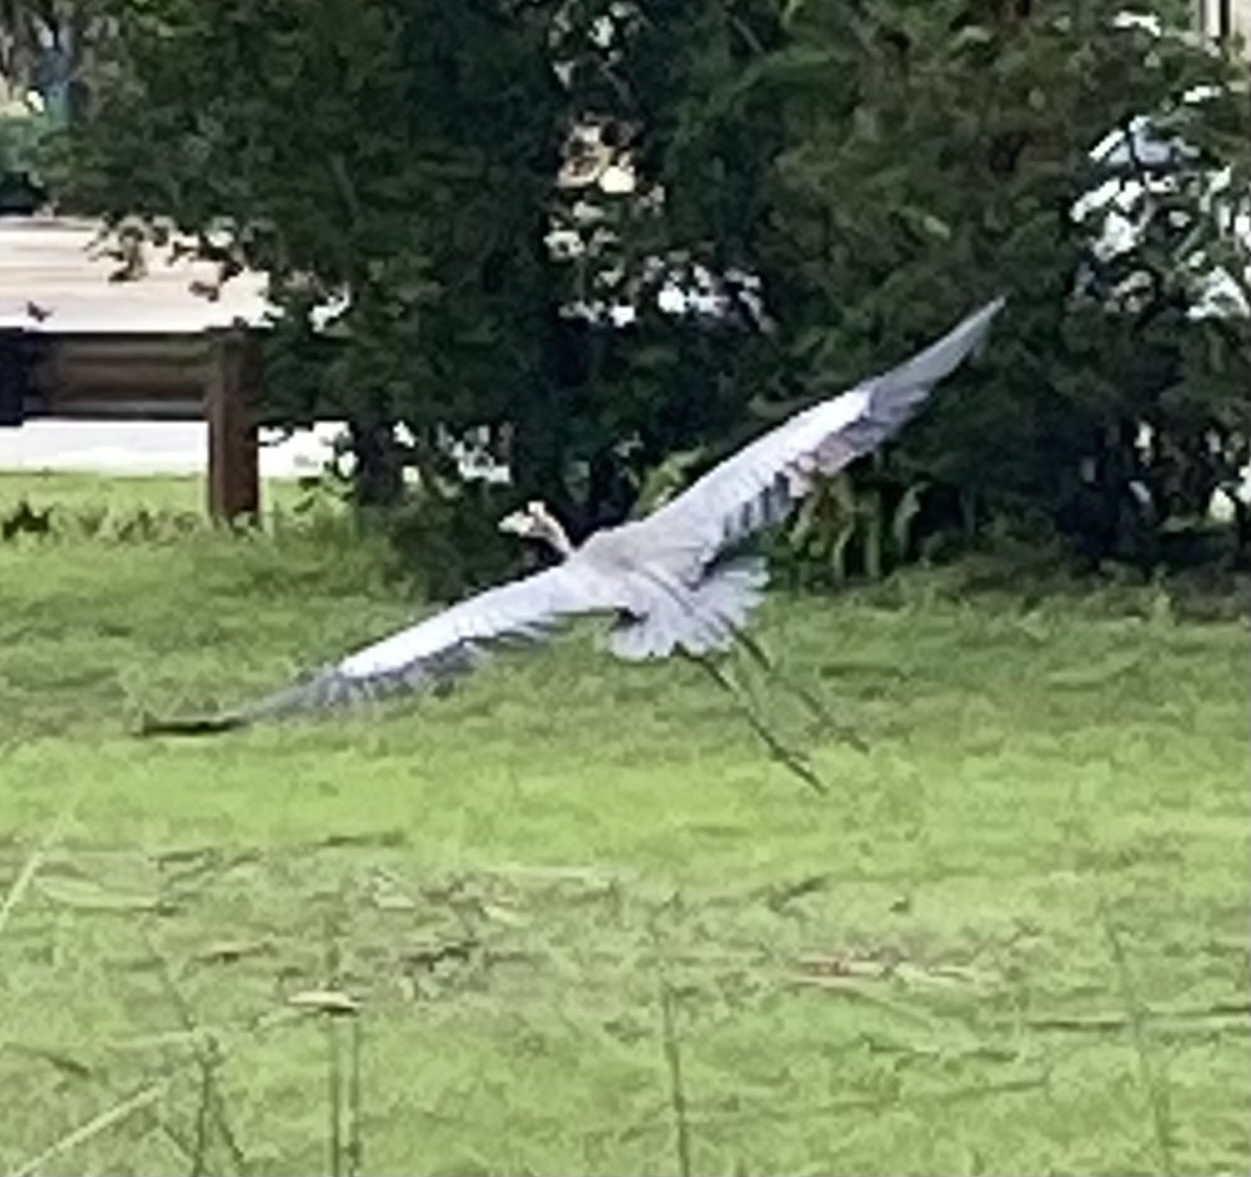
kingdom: Animalia
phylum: Chordata
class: Aves
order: Pelecaniformes
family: Ardeidae
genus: Ardea
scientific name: Ardea herodias
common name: Great blue heron
